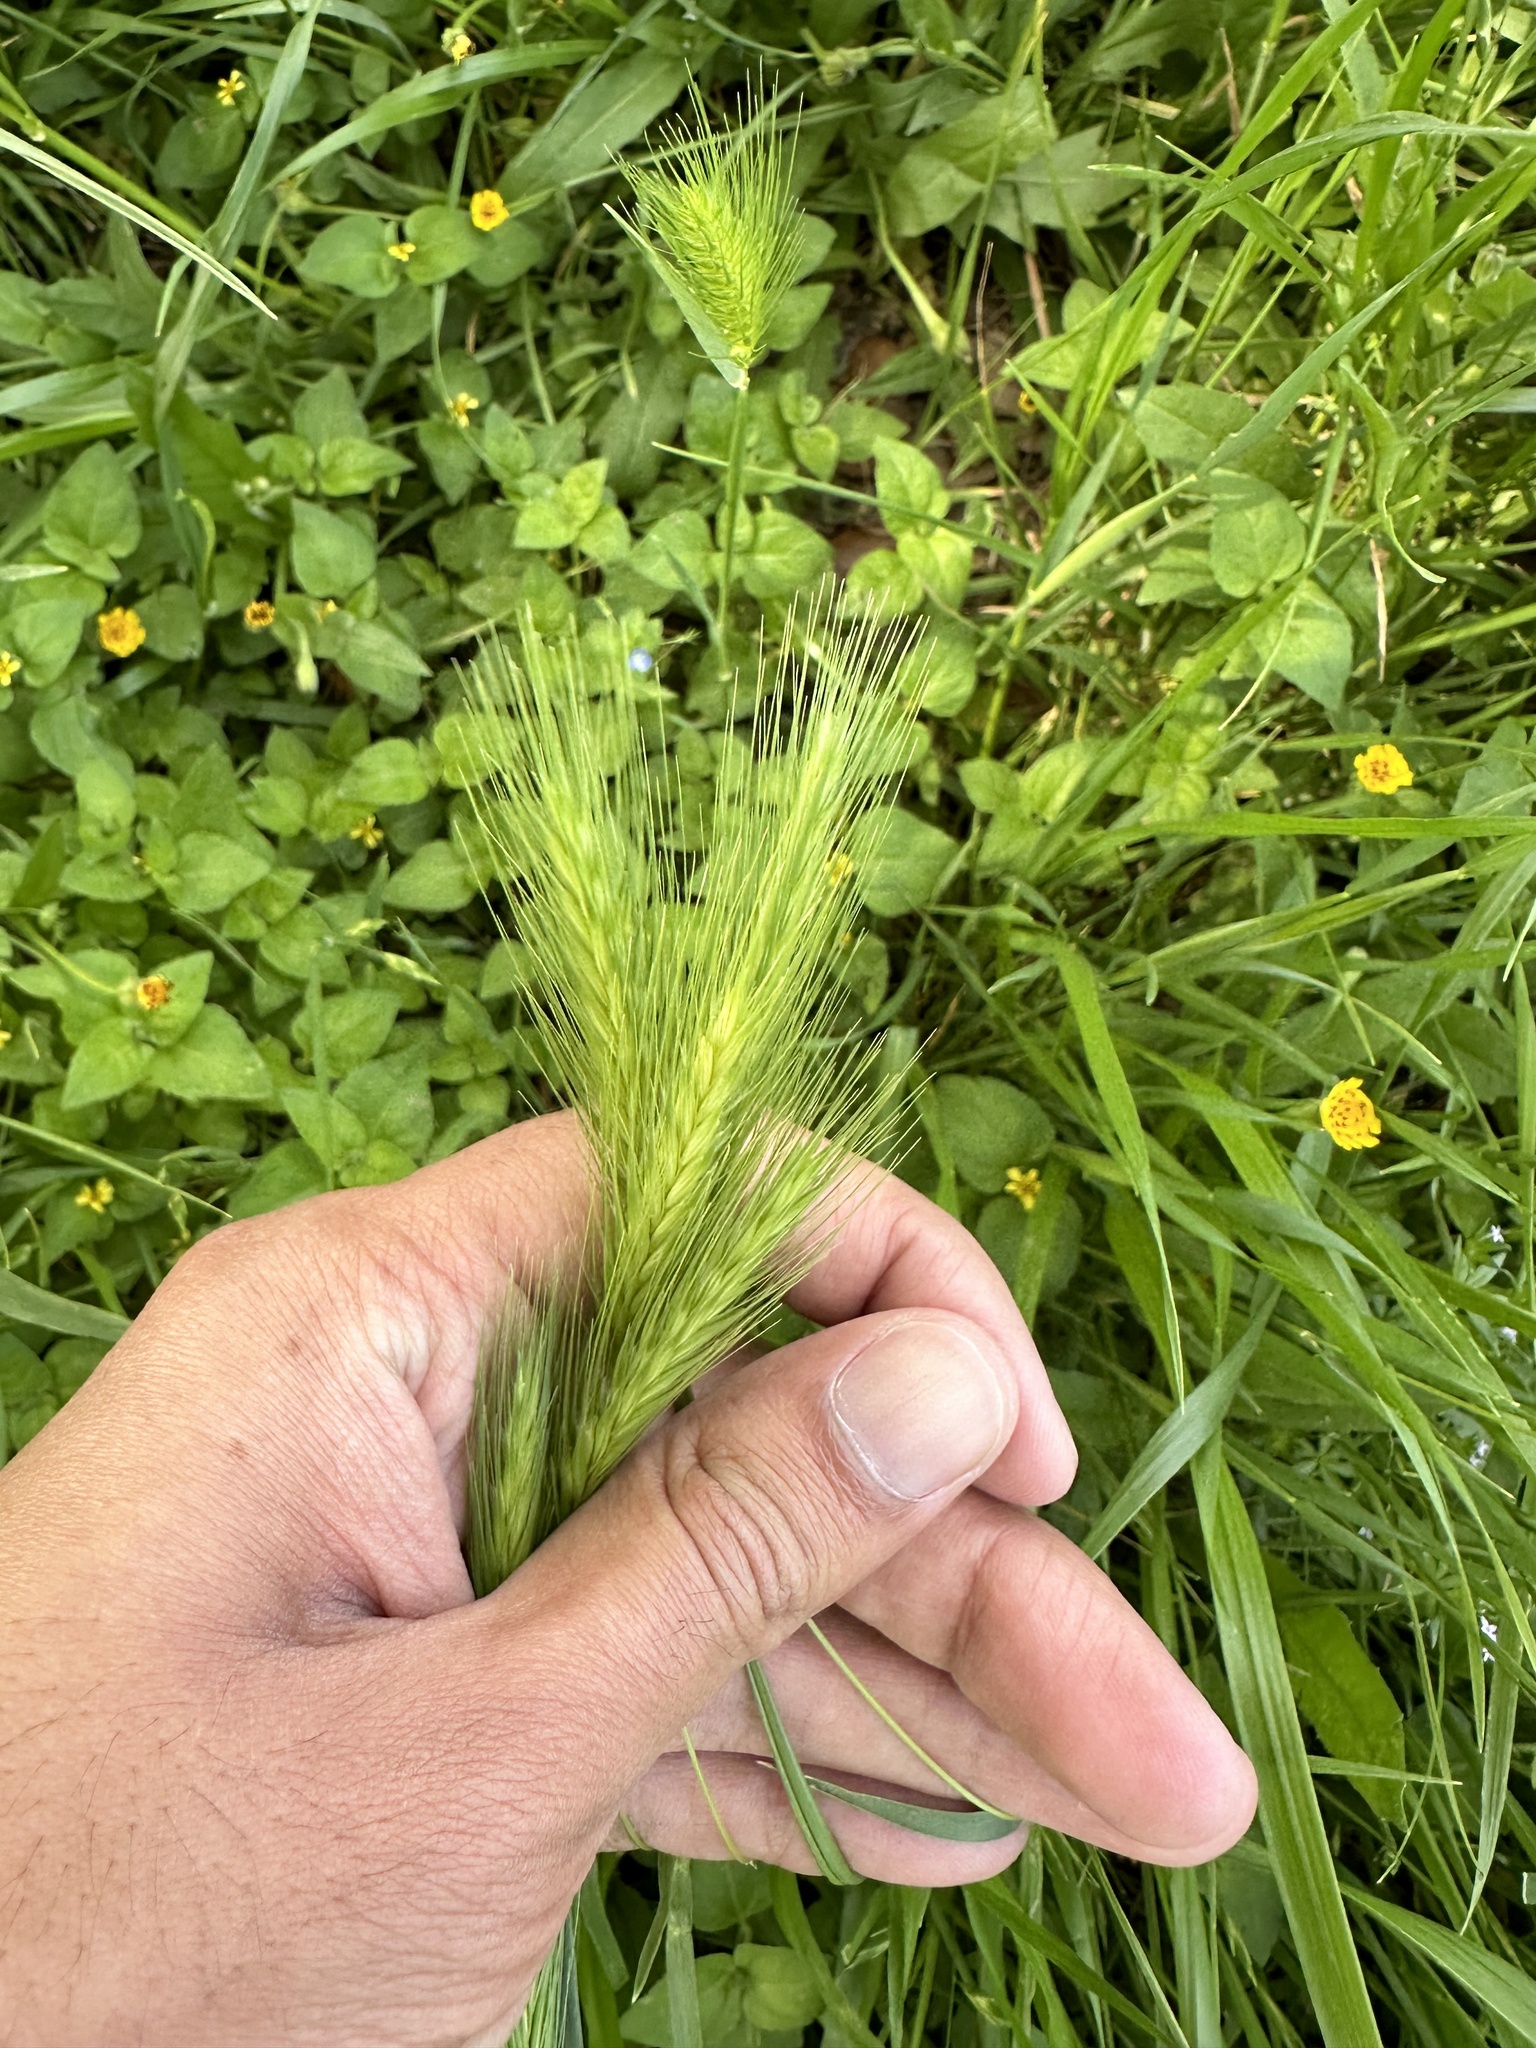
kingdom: Plantae
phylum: Tracheophyta
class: Liliopsida
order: Poales
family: Poaceae
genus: Hordeum
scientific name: Hordeum murinum
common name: Wall barley
